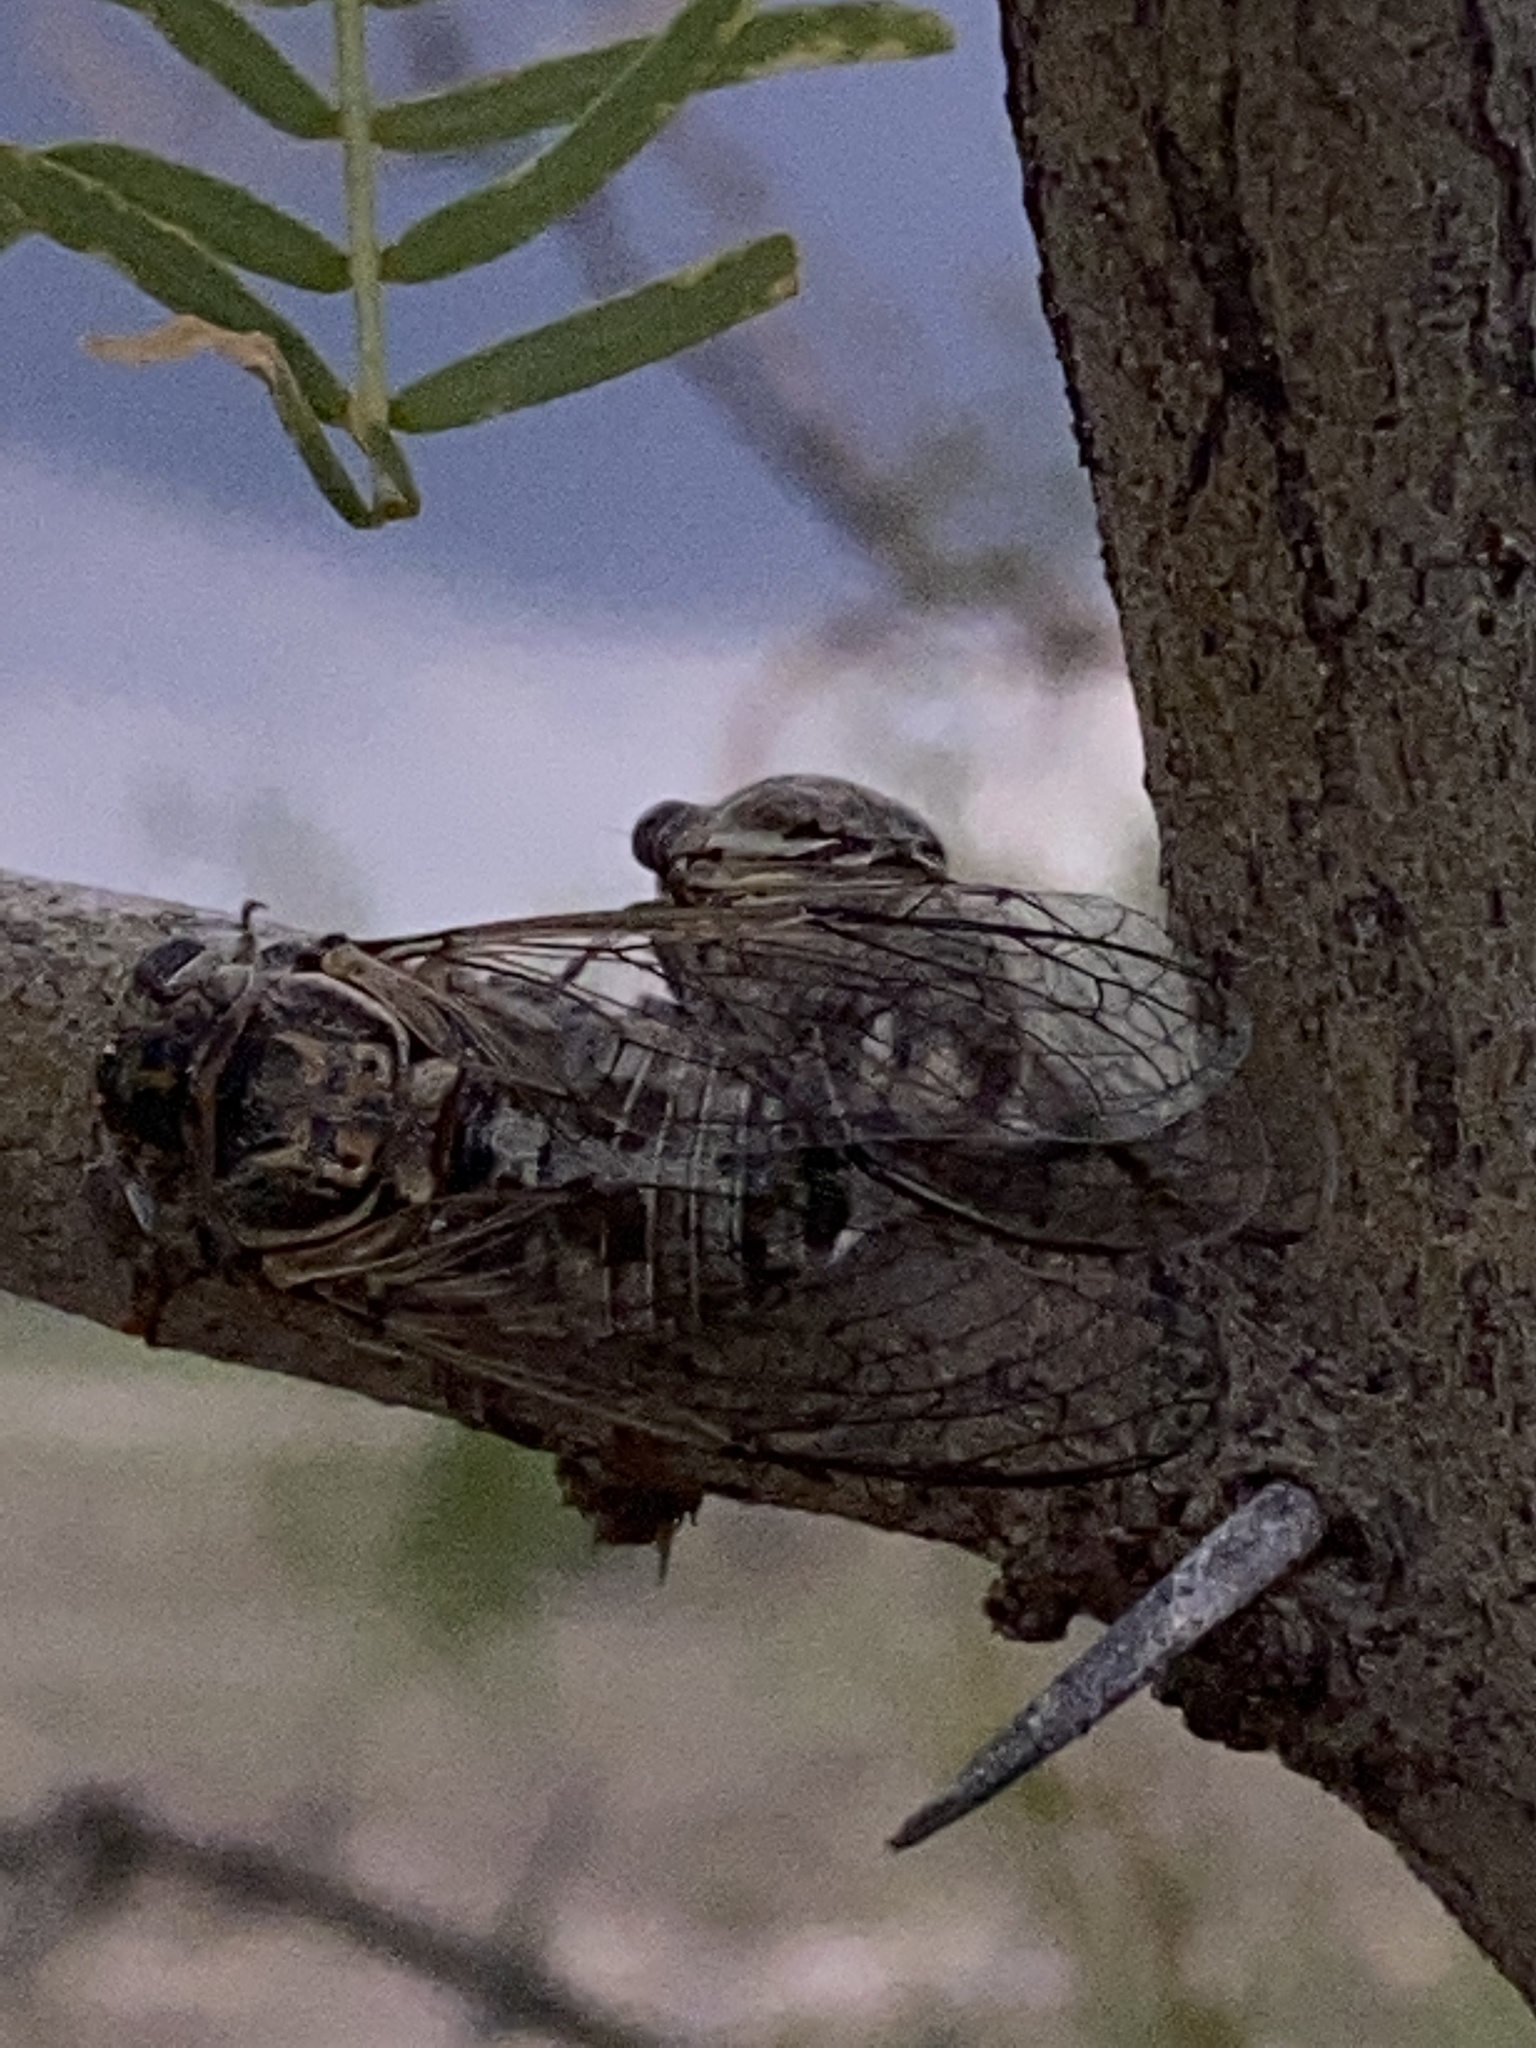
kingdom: Animalia
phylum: Arthropoda
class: Insecta
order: Hemiptera
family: Cicadidae
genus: Diceroprocta
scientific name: Diceroprocta eugraphica
